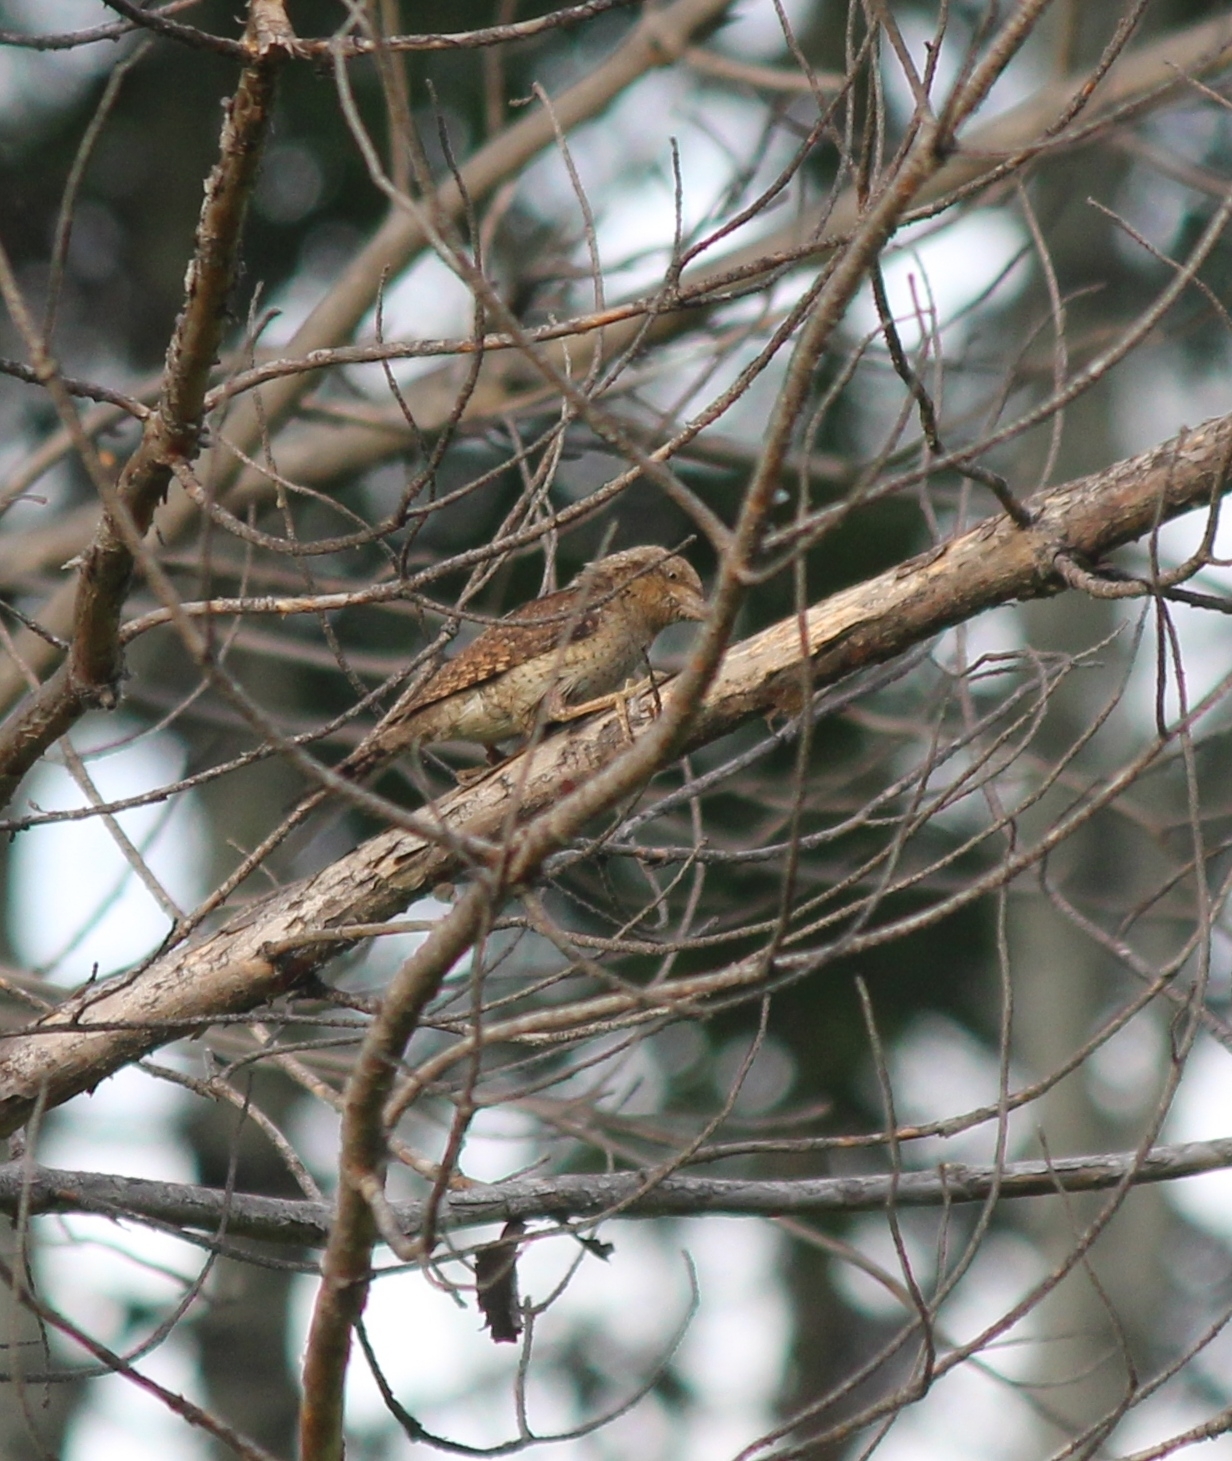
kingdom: Animalia
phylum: Chordata
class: Aves
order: Piciformes
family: Picidae
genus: Jynx
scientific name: Jynx torquilla
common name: Eurasian wryneck
